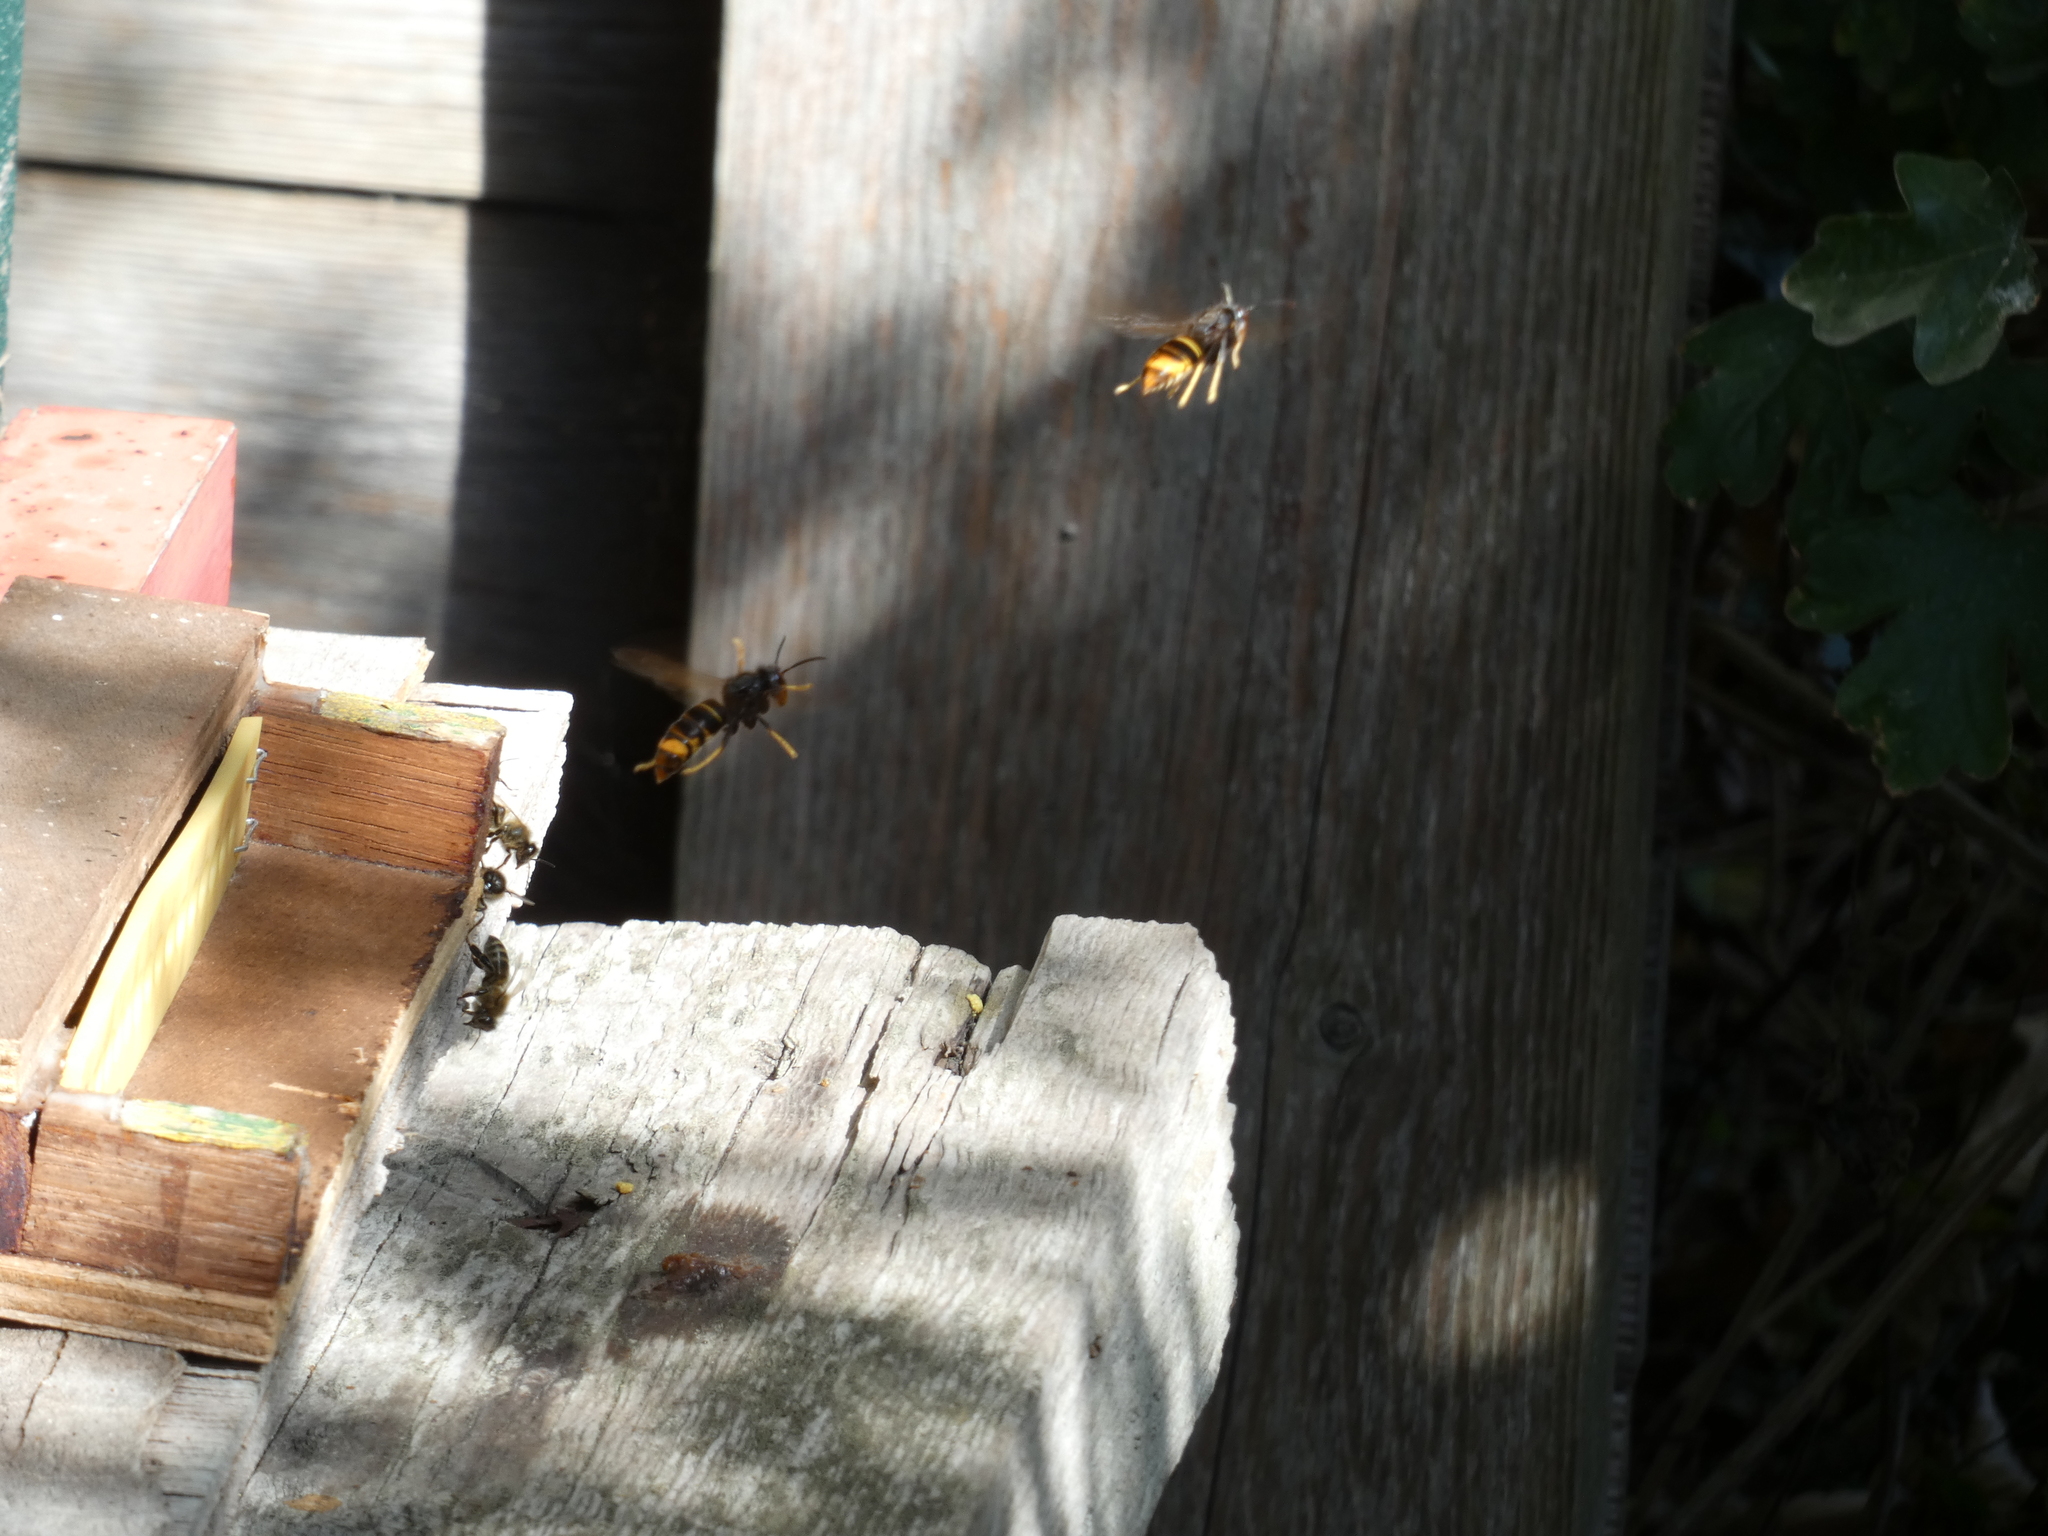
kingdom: Animalia
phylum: Arthropoda
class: Insecta
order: Hymenoptera
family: Vespidae
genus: Vespa
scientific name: Vespa velutina
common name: Asian hornet
